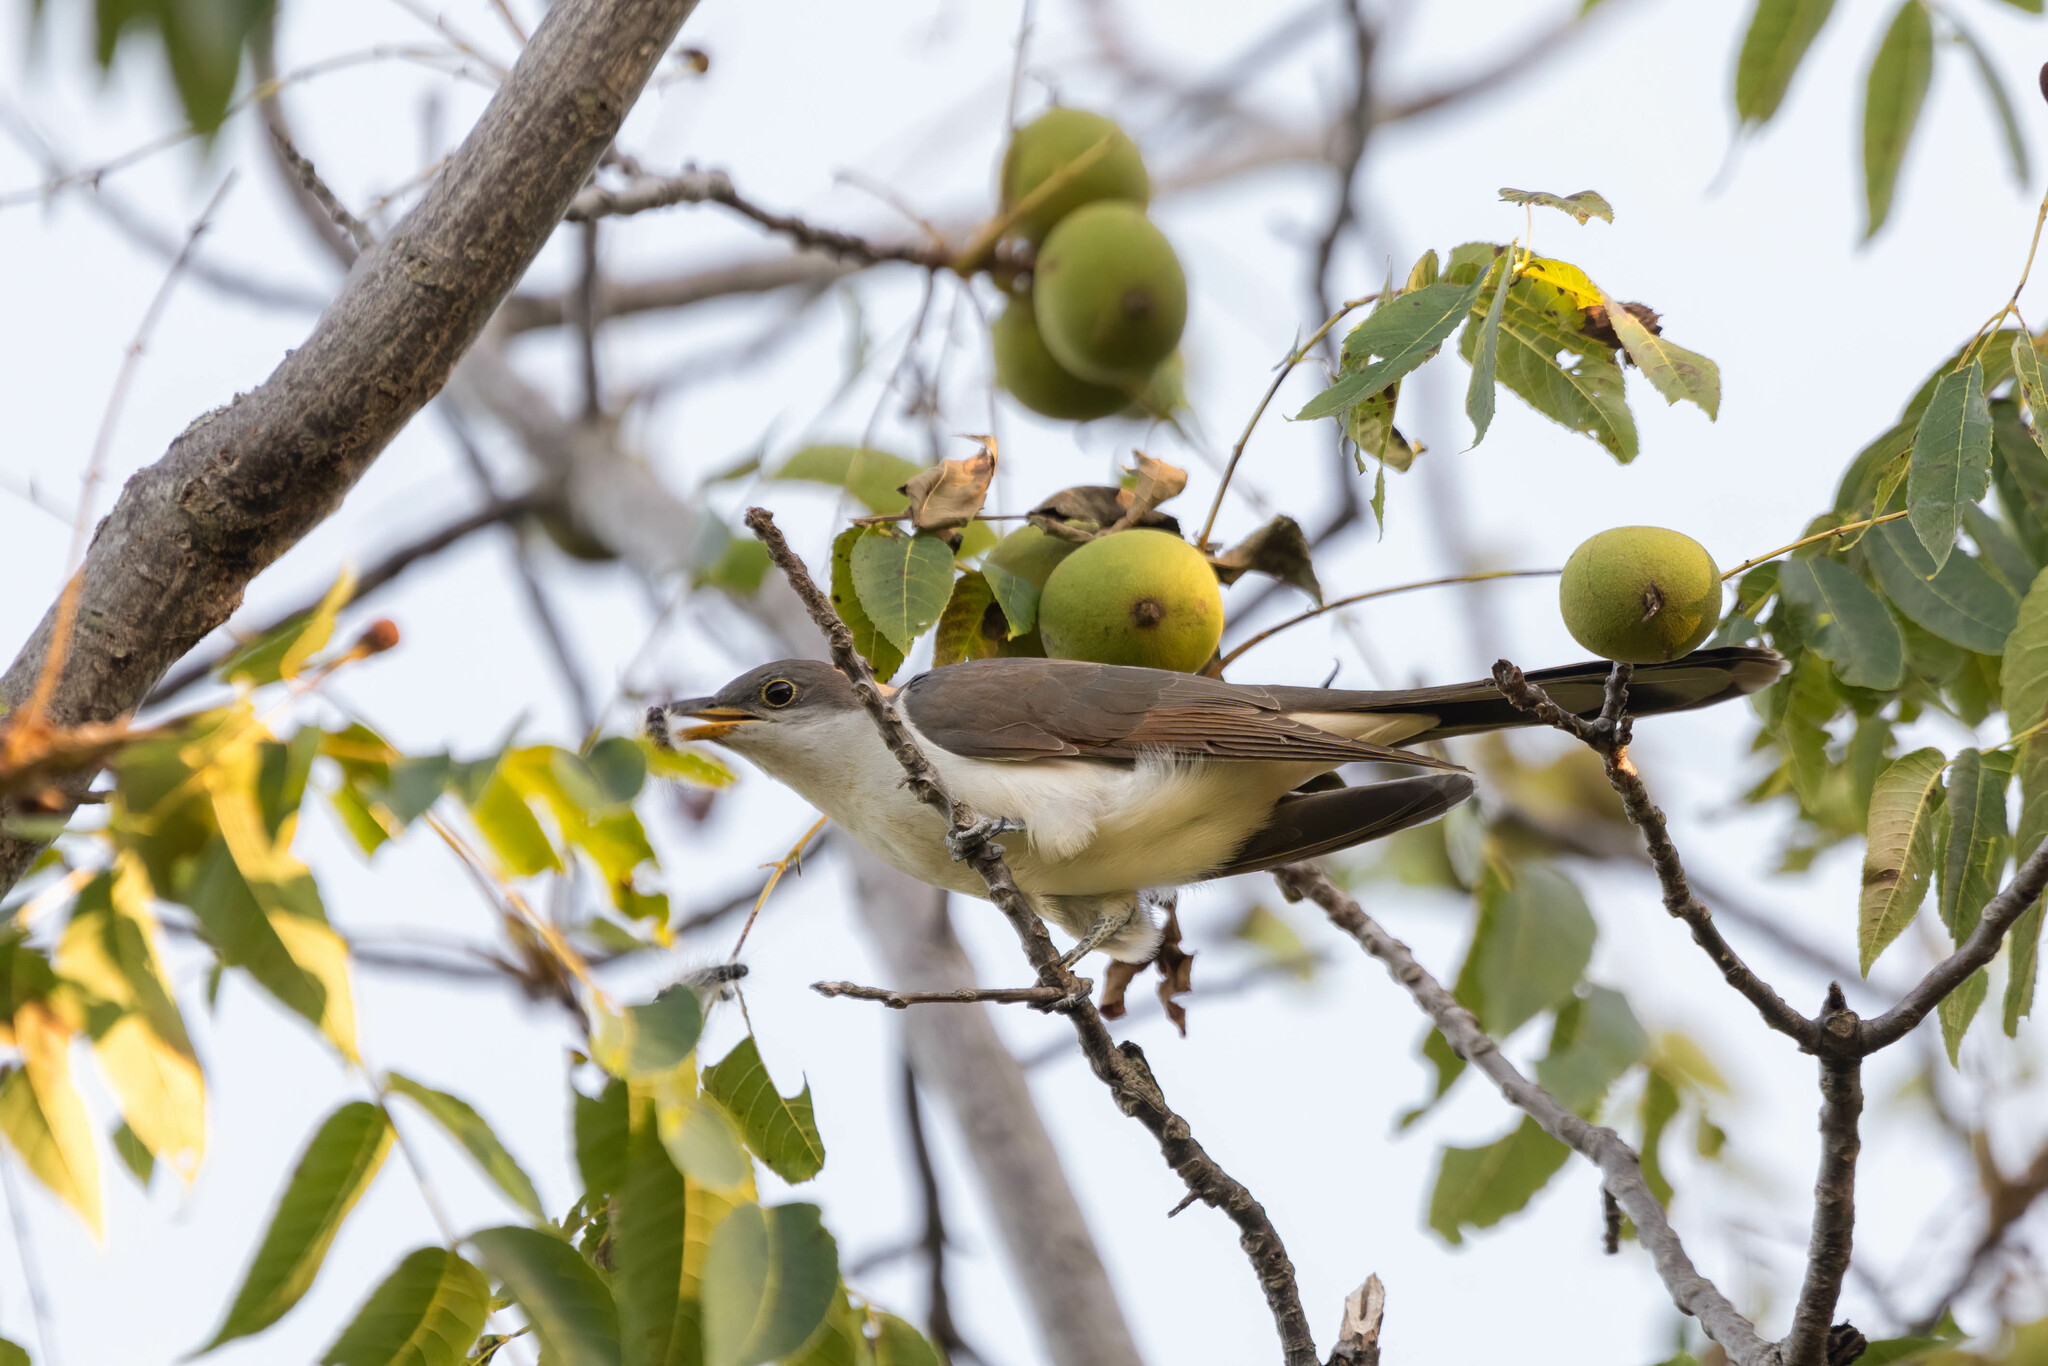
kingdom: Animalia
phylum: Chordata
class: Aves
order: Cuculiformes
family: Cuculidae
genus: Coccyzus
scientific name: Coccyzus americanus
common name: Yellow-billed cuckoo
